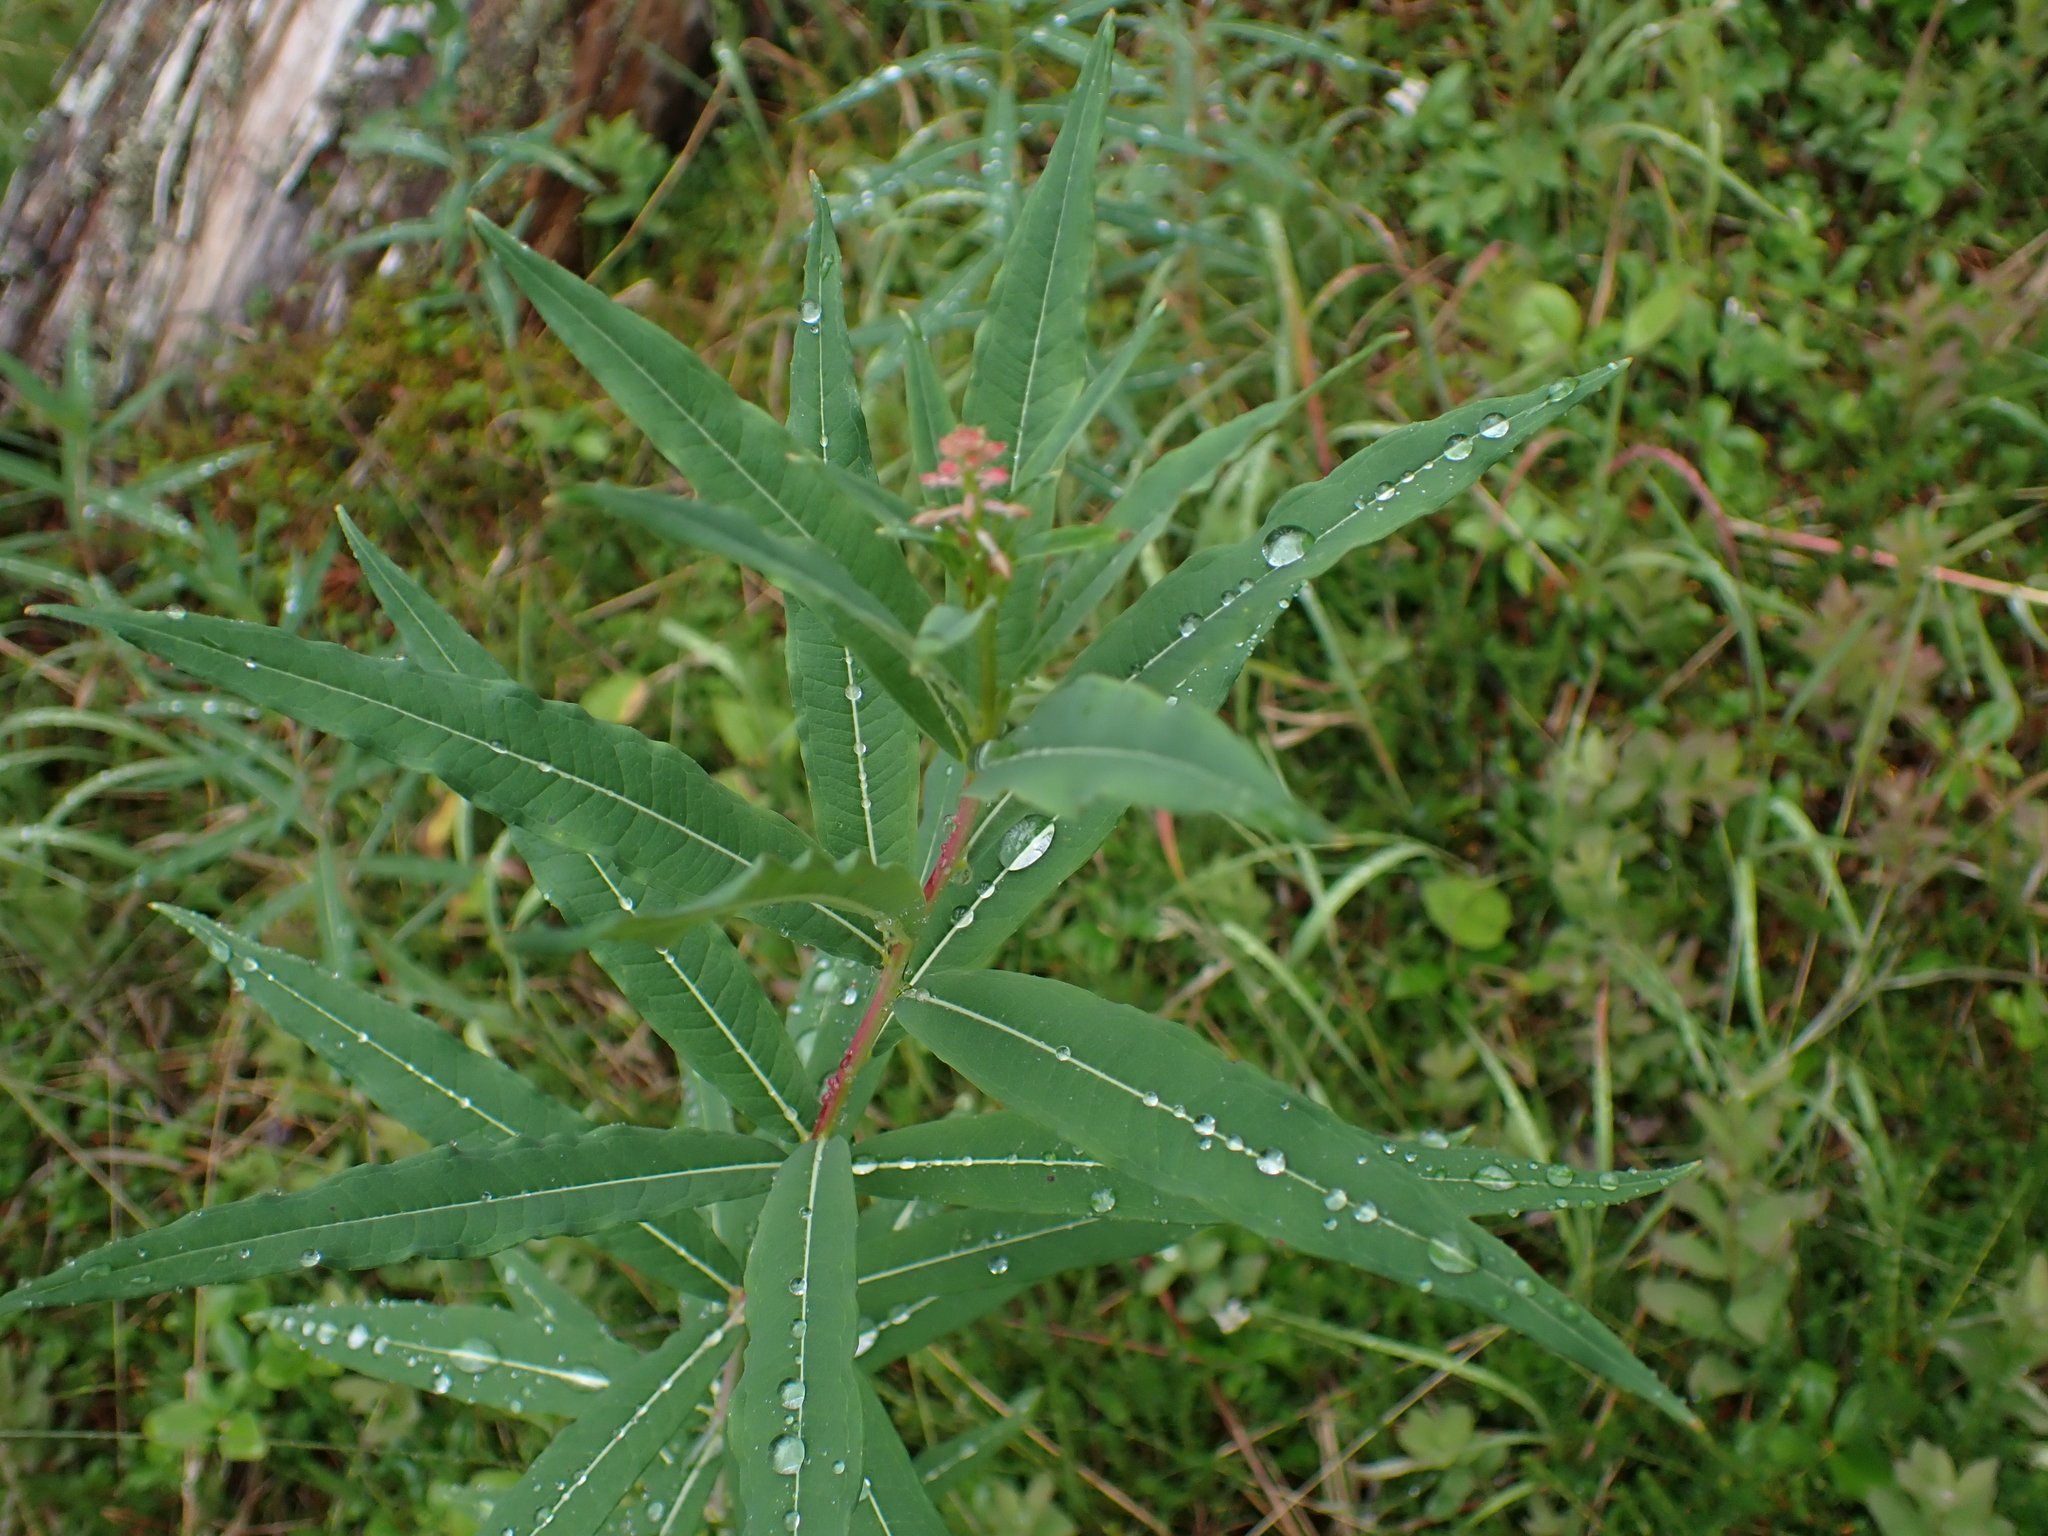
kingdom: Plantae
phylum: Tracheophyta
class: Magnoliopsida
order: Myrtales
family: Onagraceae
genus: Chamaenerion
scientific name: Chamaenerion angustifolium
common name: Fireweed
